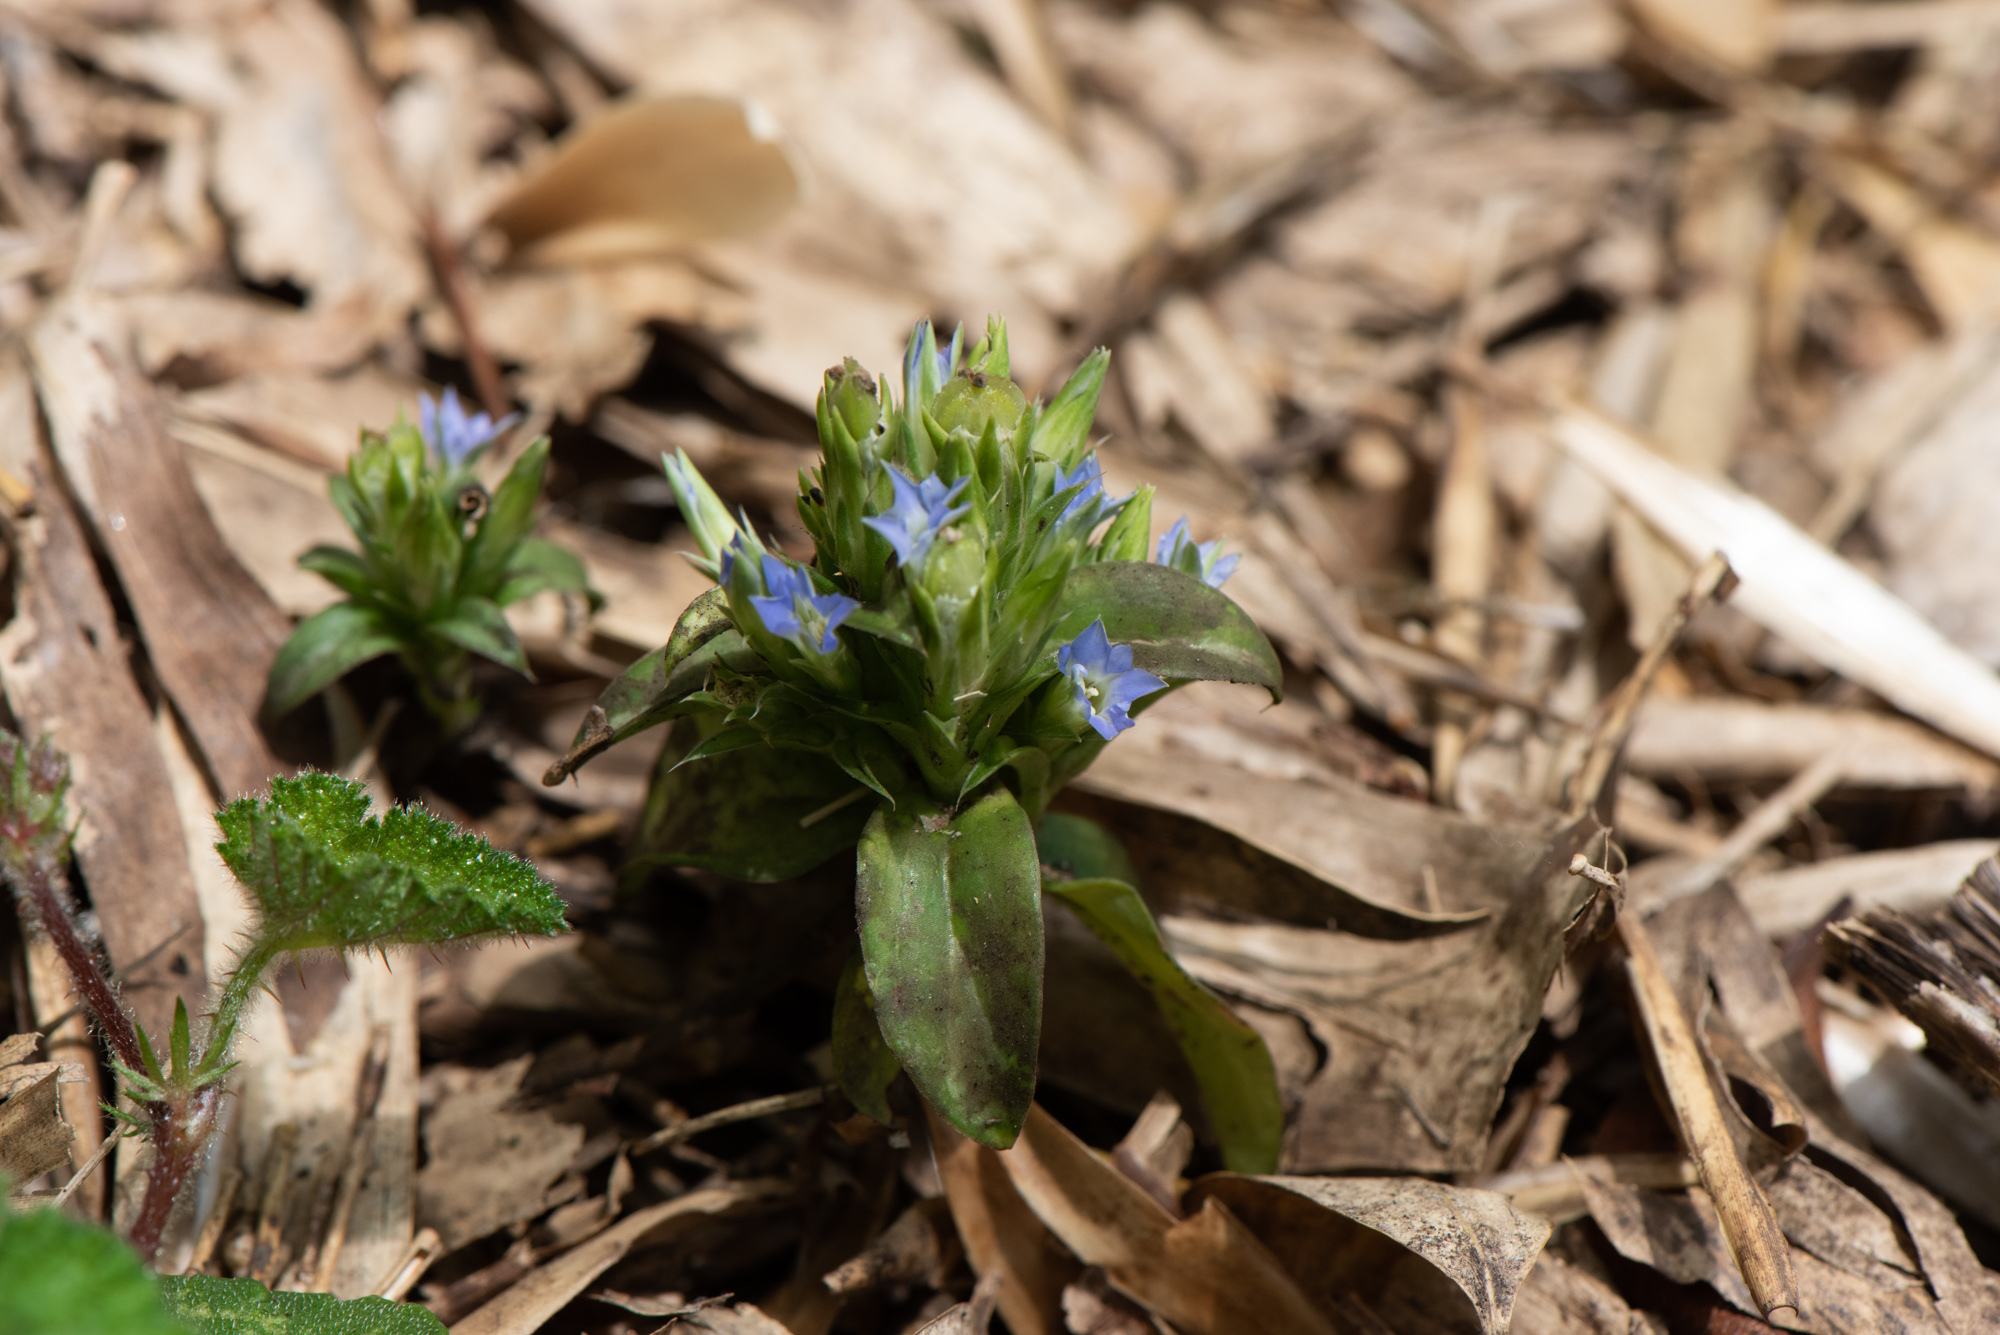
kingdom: Plantae
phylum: Tracheophyta
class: Magnoliopsida
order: Gentianales
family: Gentianaceae
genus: Gentiana
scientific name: Gentiana bambuseti
